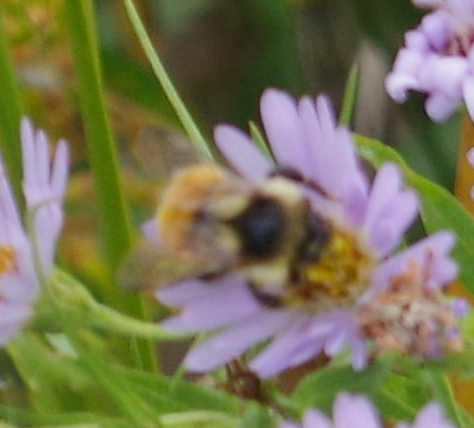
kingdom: Animalia
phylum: Arthropoda
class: Insecta
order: Hymenoptera
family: Apidae
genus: Bombus
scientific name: Bombus ternarius
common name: Tri-colored bumble bee
